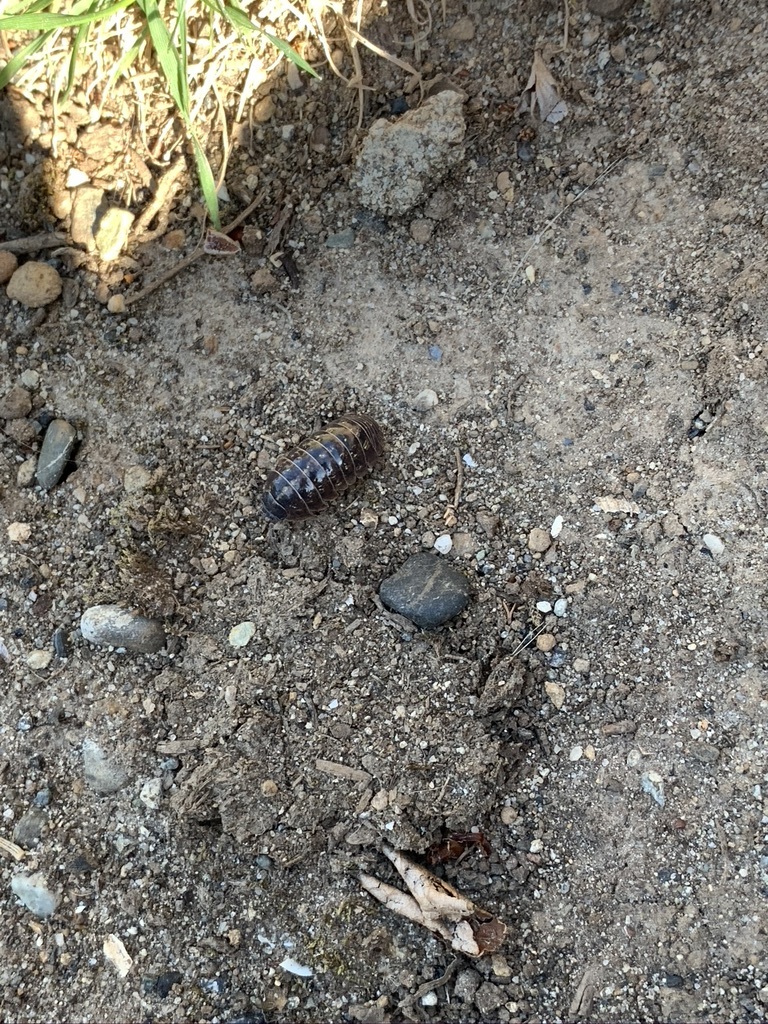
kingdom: Animalia
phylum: Arthropoda
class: Malacostraca
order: Isopoda
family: Armadillidiidae
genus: Armadillidium
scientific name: Armadillidium vulgare
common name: Common pill woodlouse
